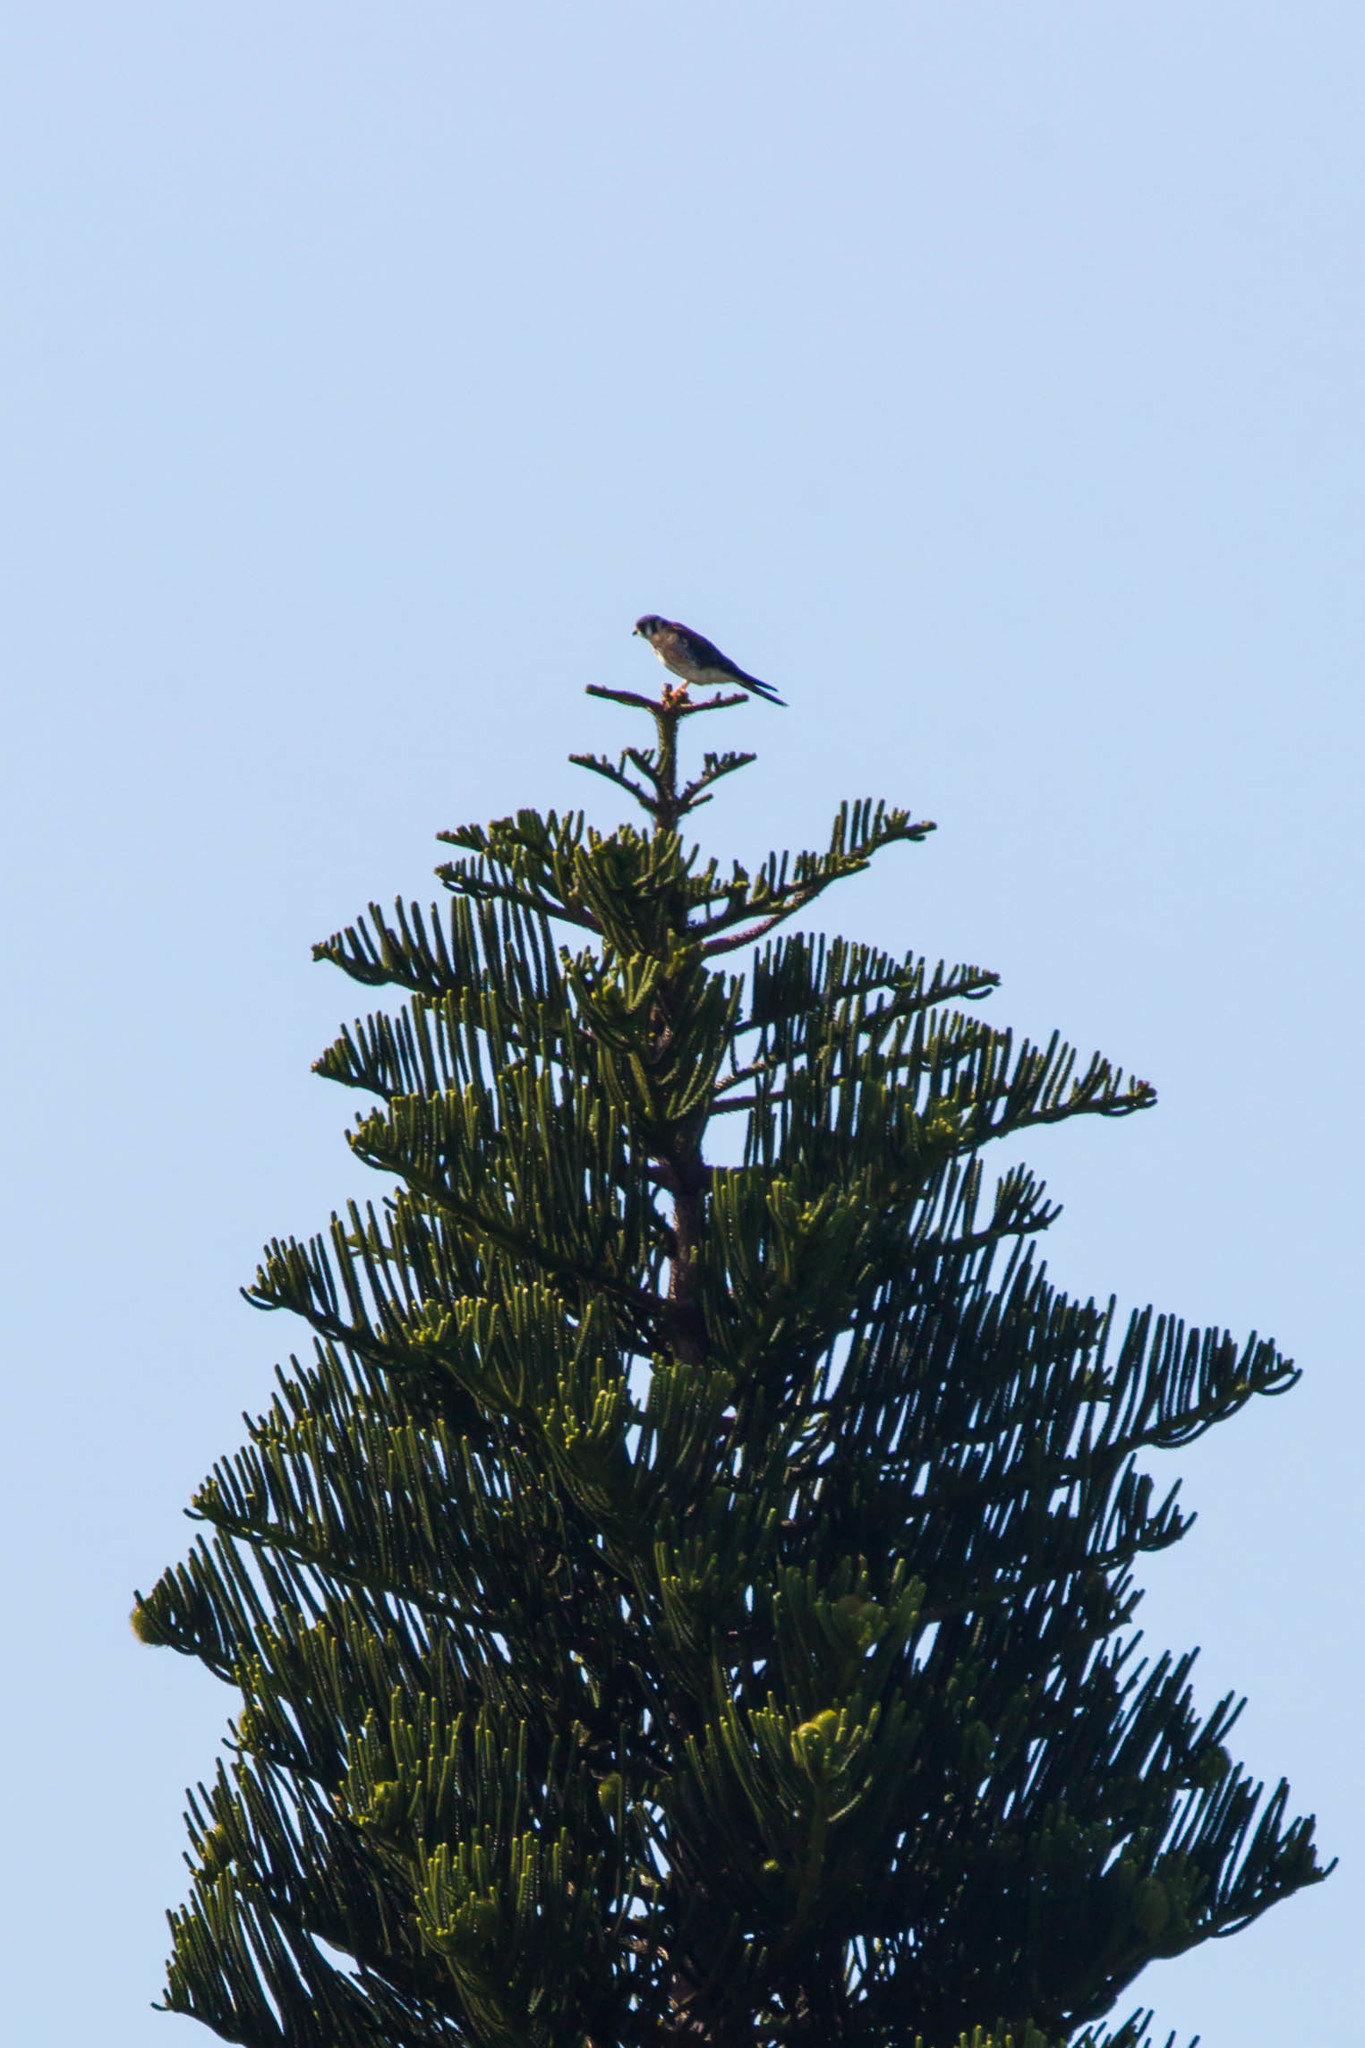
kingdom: Animalia
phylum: Chordata
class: Aves
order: Falconiformes
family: Falconidae
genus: Falco
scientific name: Falco sparverius
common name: American kestrel
